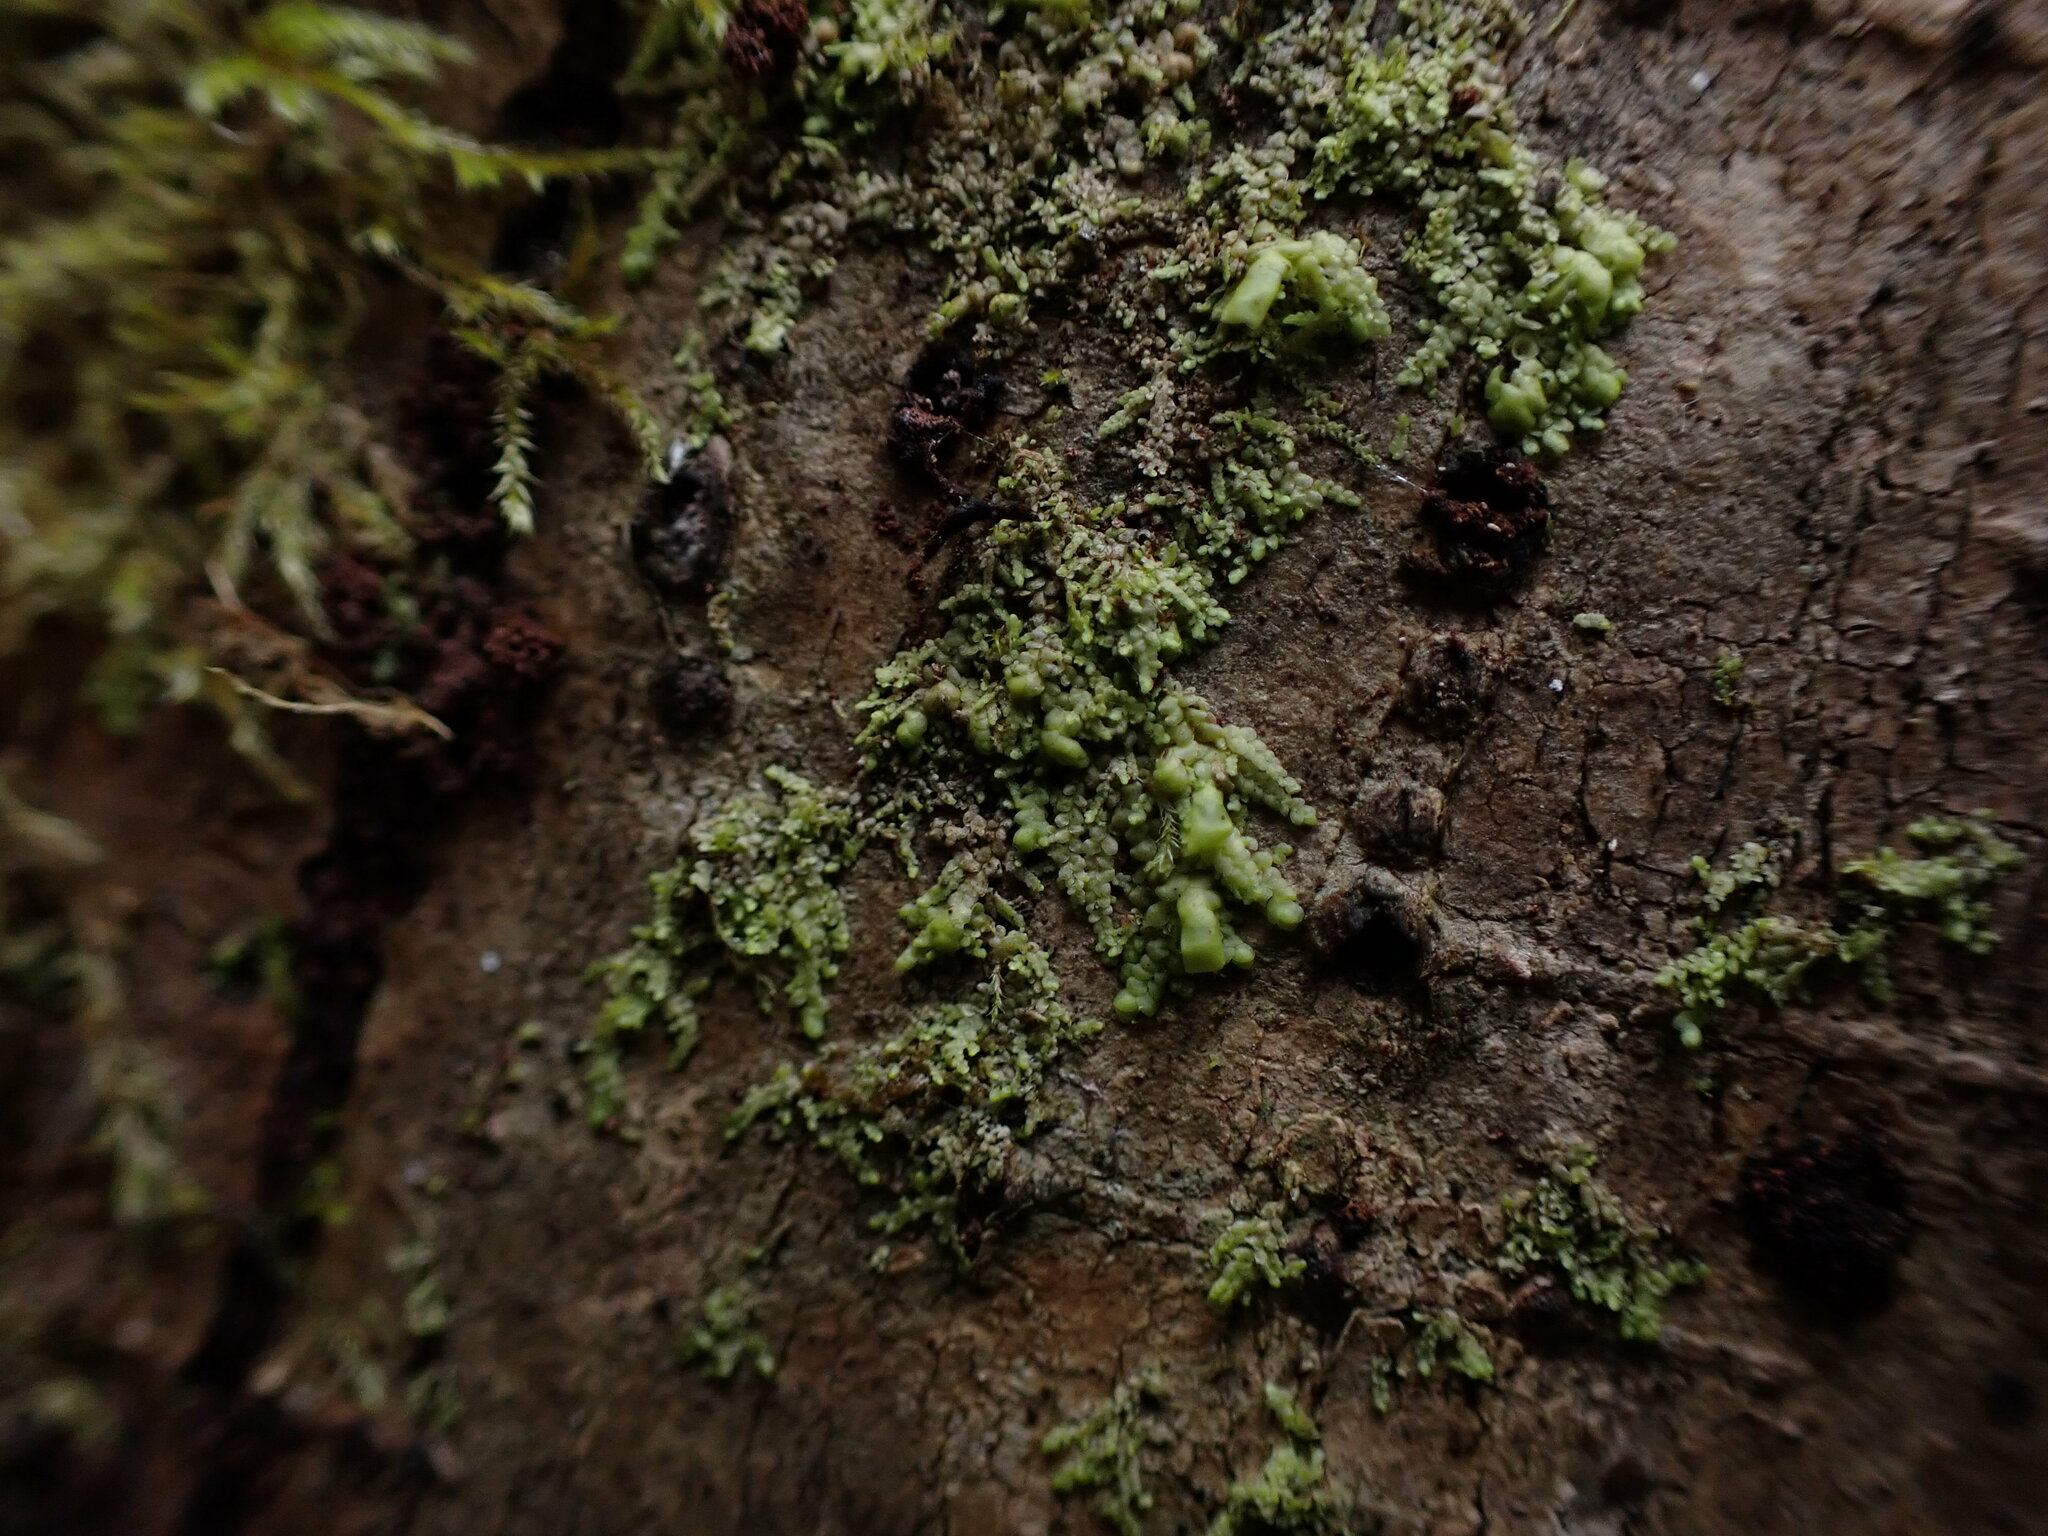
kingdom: Plantae
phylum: Marchantiophyta
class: Jungermanniopsida
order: Porellales
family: Radulaceae
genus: Radula
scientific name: Radula bolanderi
